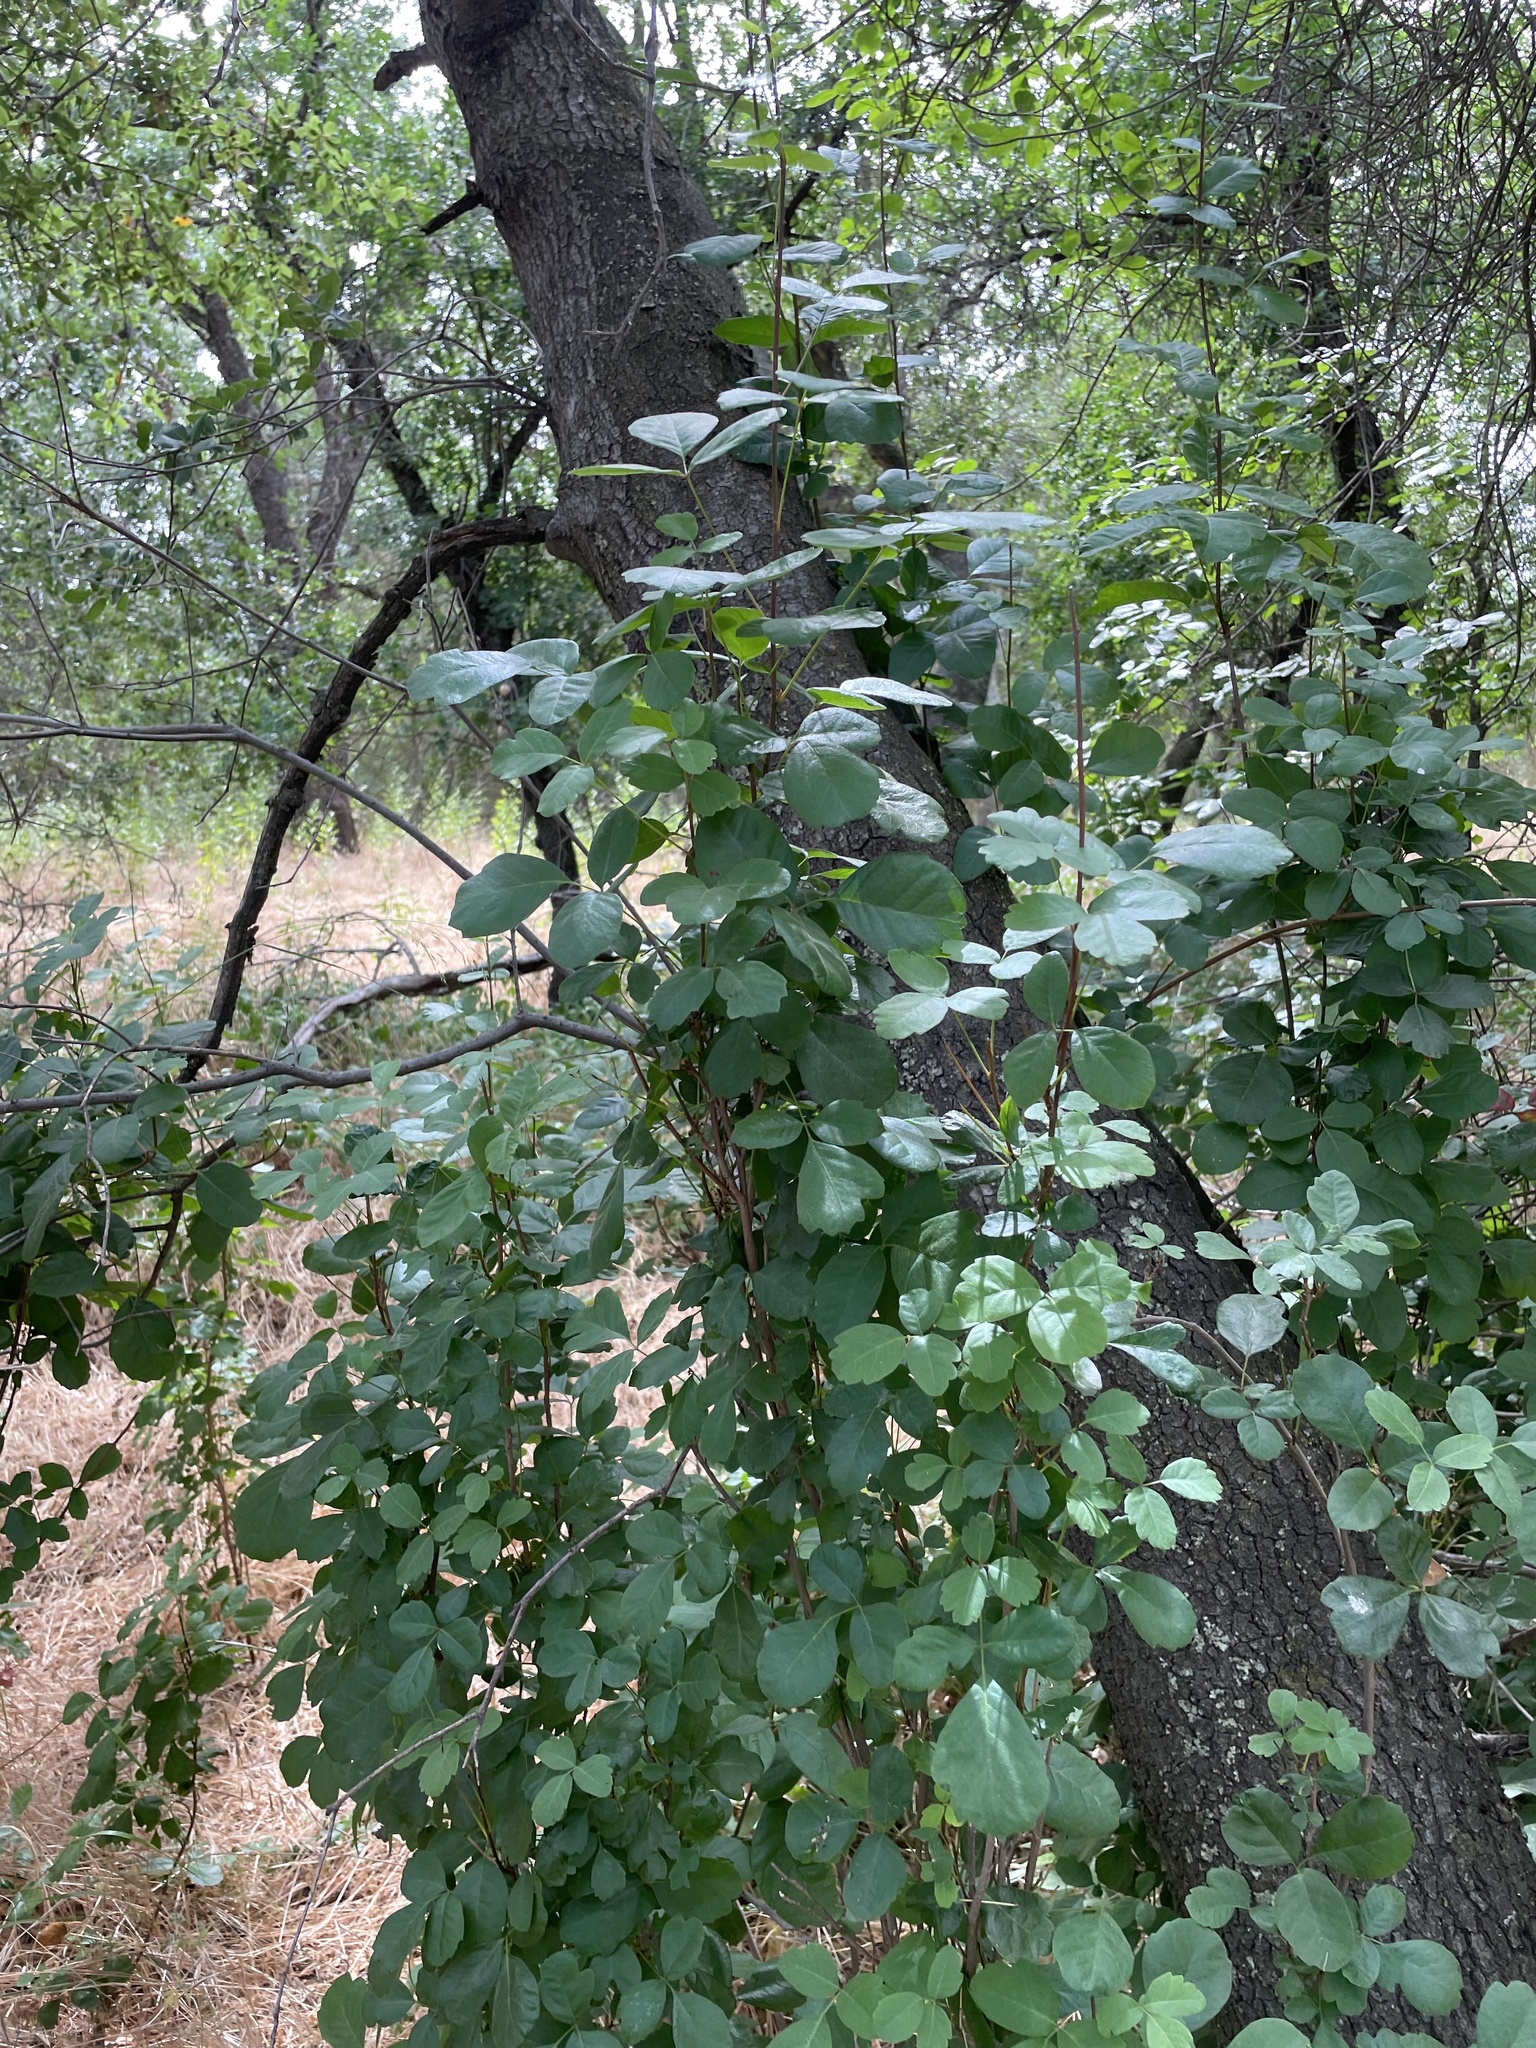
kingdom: Plantae
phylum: Tracheophyta
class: Magnoliopsida
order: Sapindales
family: Anacardiaceae
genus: Toxicodendron
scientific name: Toxicodendron diversilobum
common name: Pacific poison-oak
